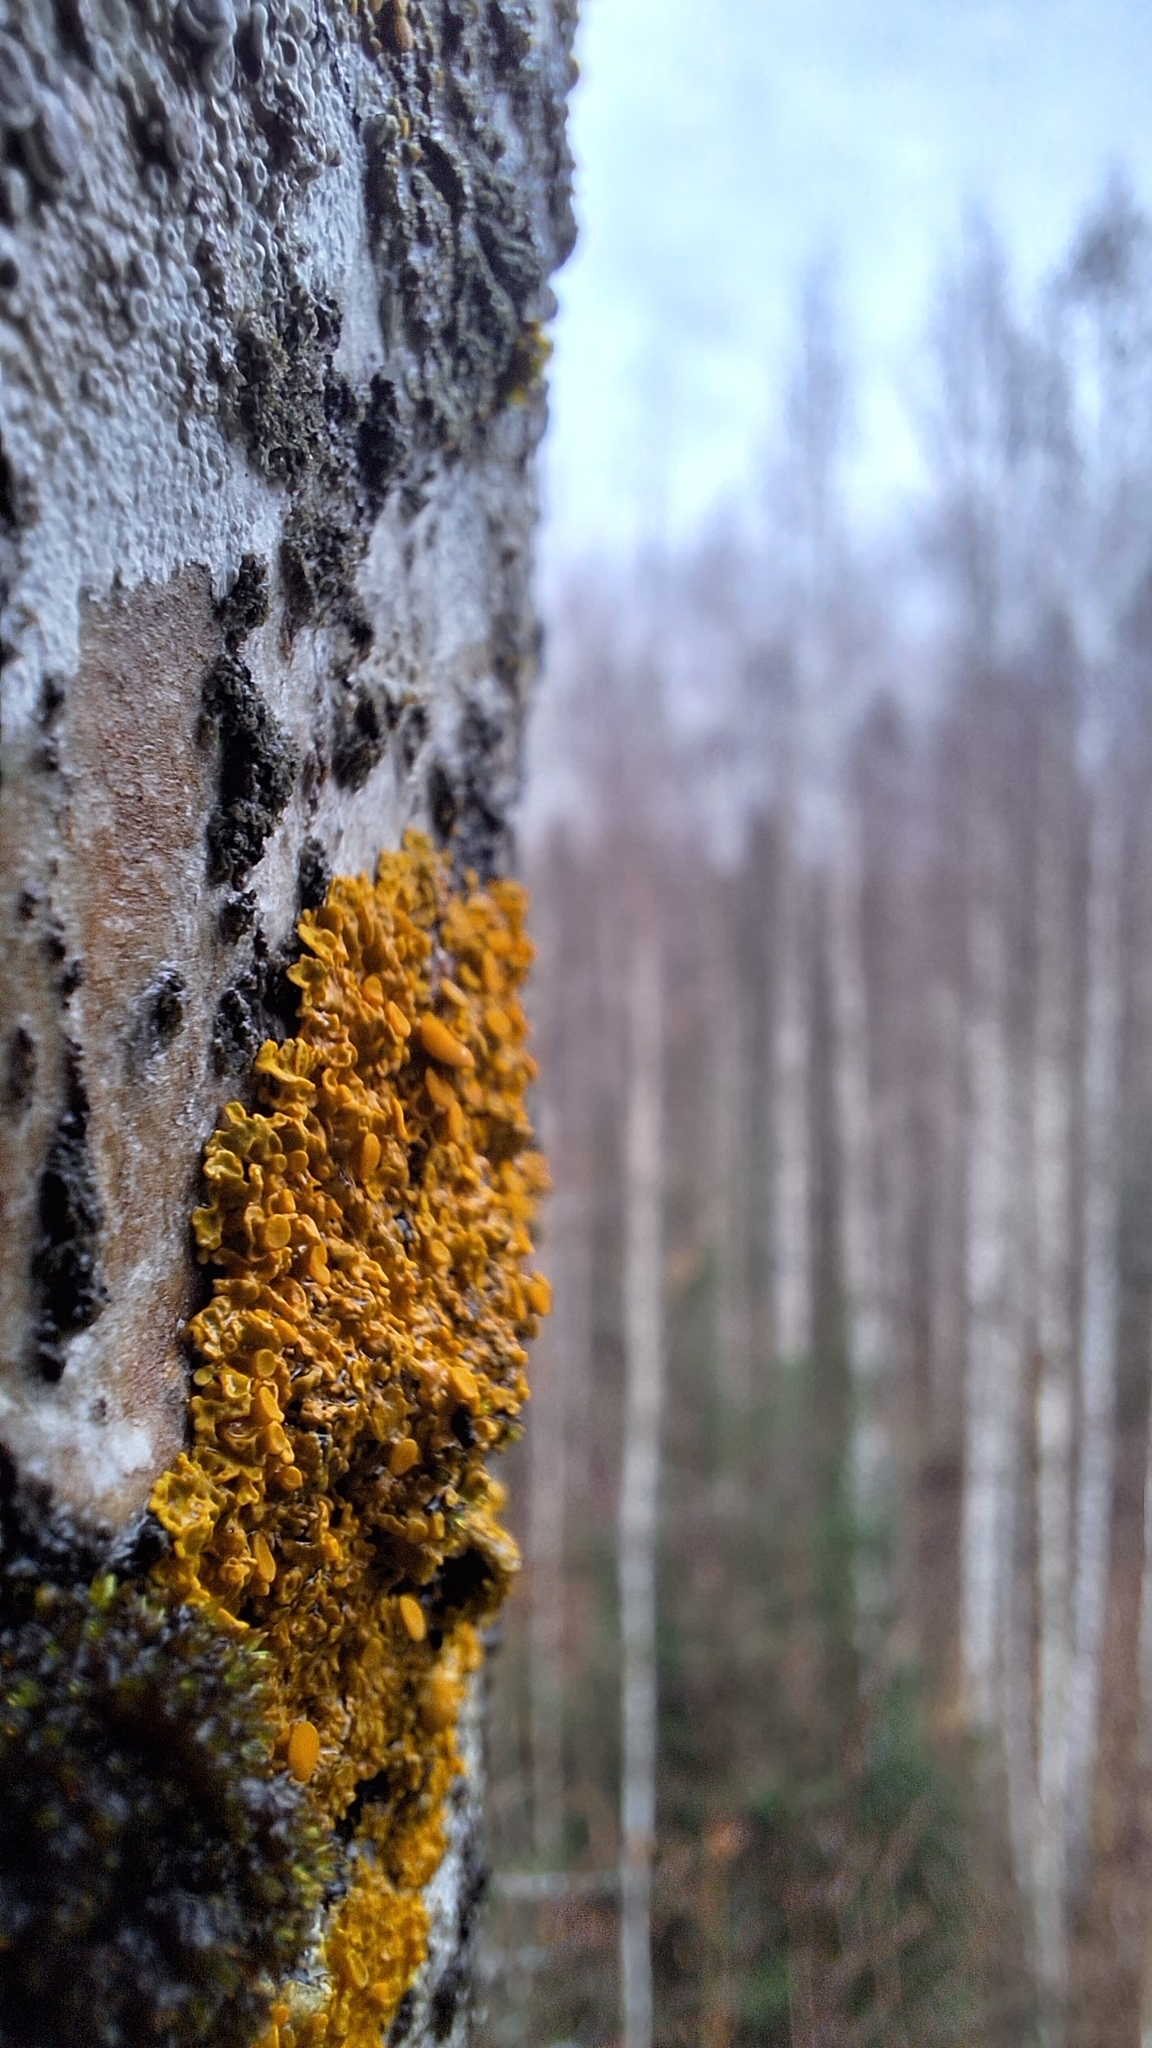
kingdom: Fungi
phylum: Ascomycota
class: Lecanoromycetes
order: Teloschistales
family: Teloschistaceae
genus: Xanthoria
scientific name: Xanthoria parietina
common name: Common orange lichen
